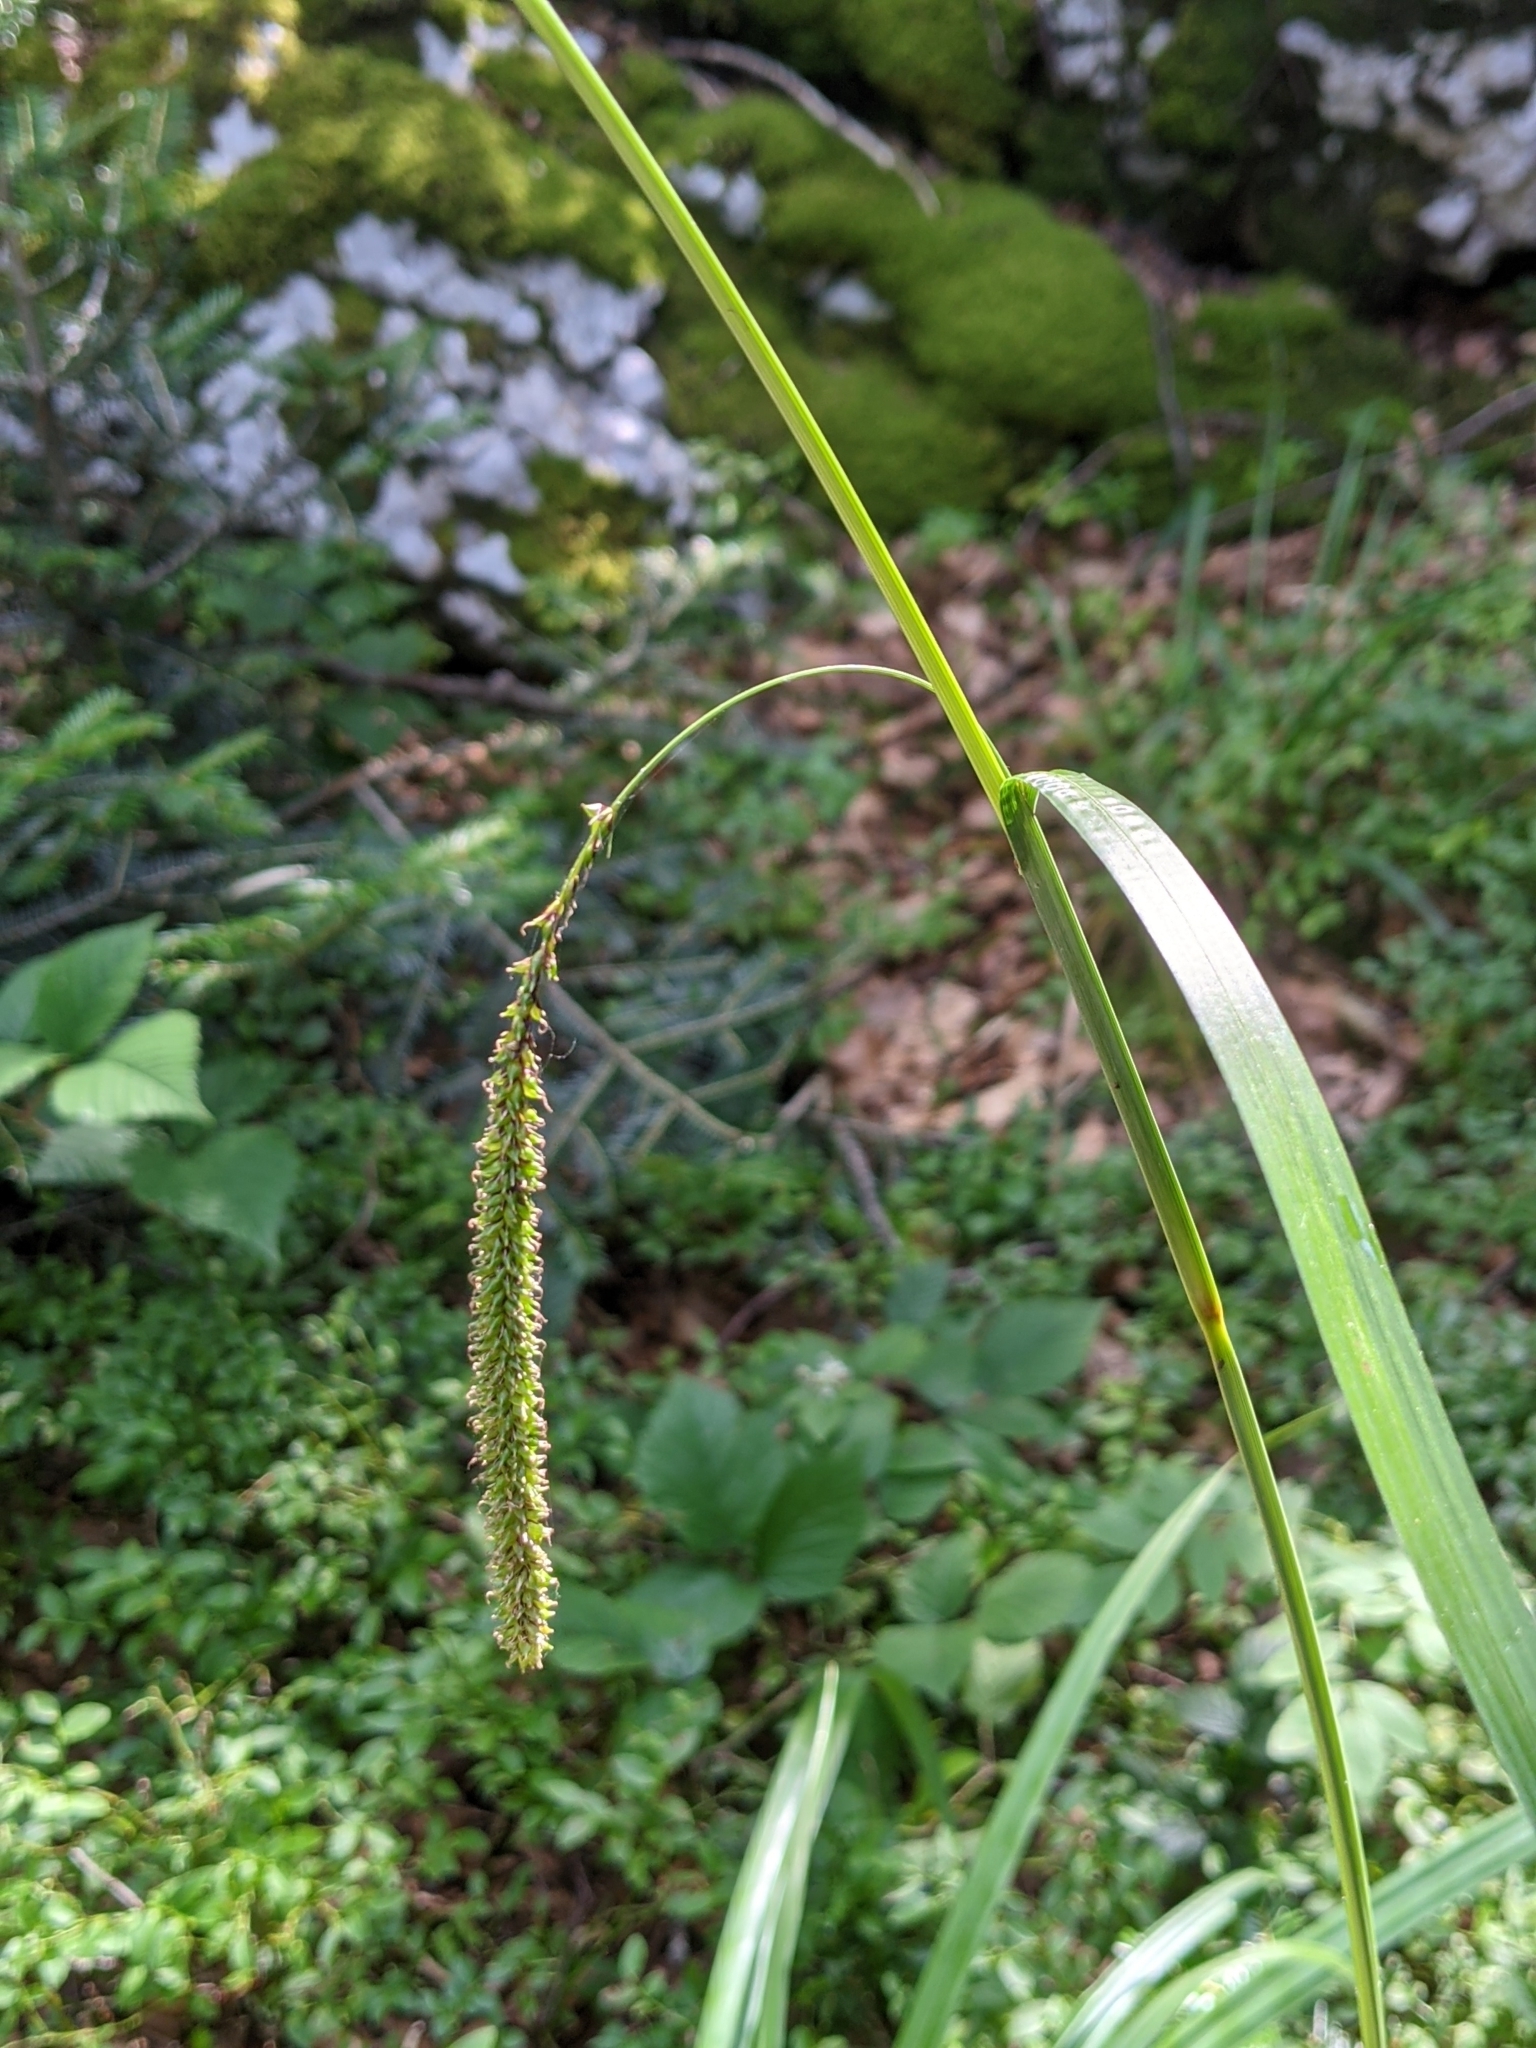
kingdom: Plantae
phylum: Tracheophyta
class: Liliopsida
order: Poales
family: Cyperaceae
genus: Carex
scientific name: Carex pendula
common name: Pendulous sedge
